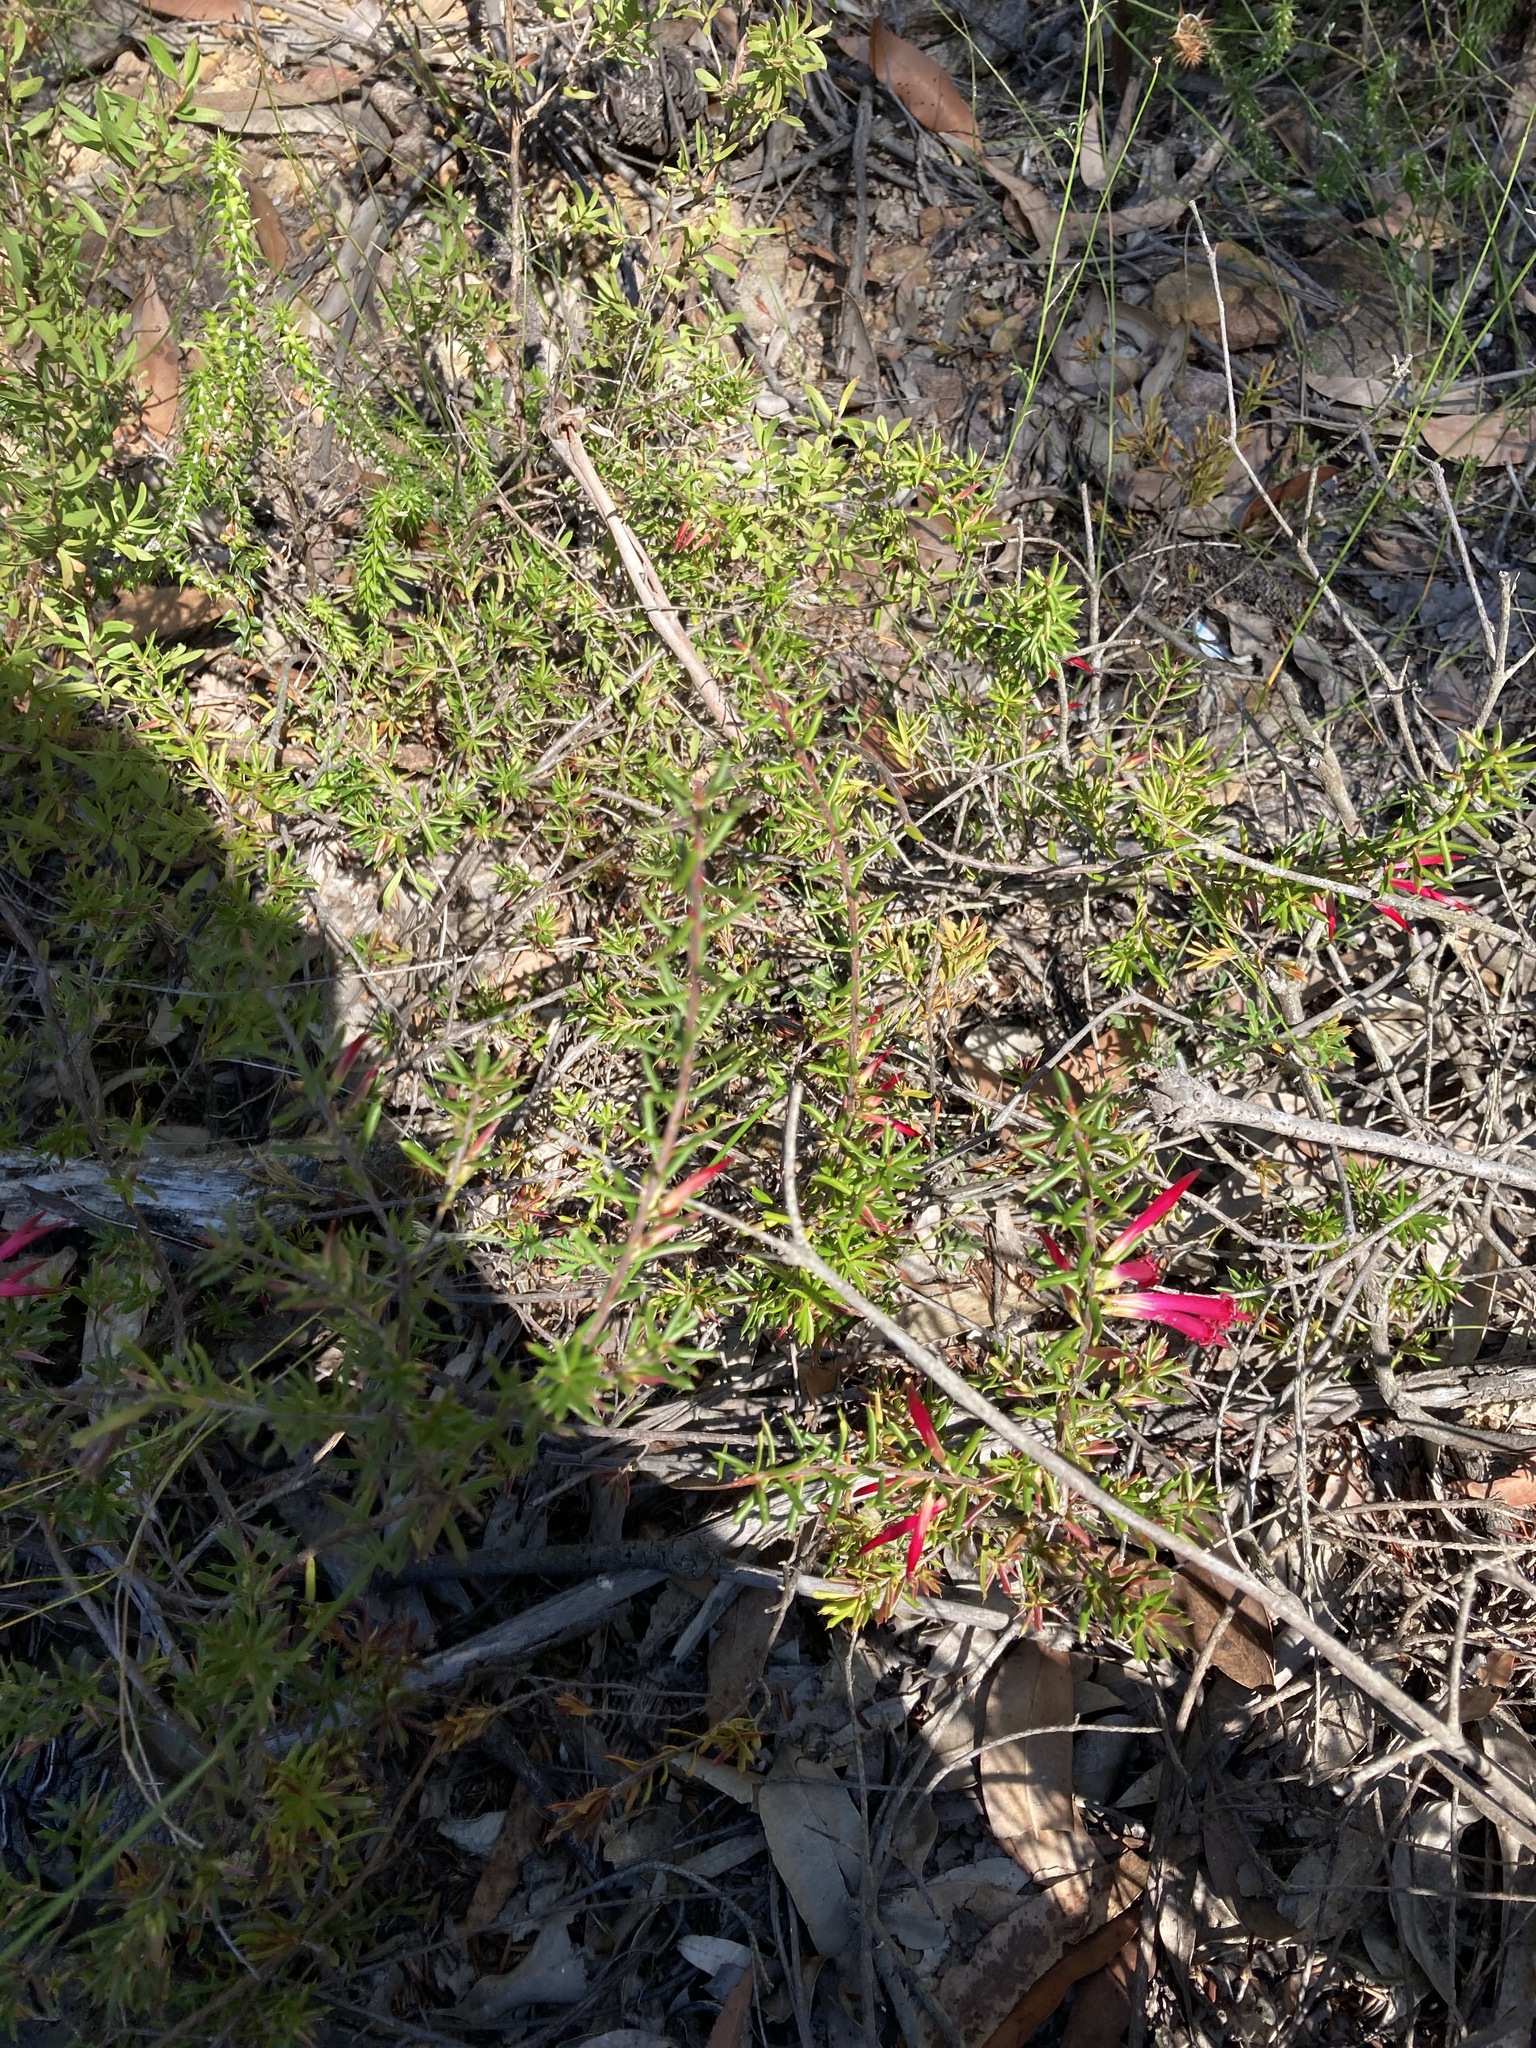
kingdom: Plantae
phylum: Tracheophyta
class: Magnoliopsida
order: Ericales
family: Ericaceae
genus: Styphelia
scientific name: Styphelia tubiflora
